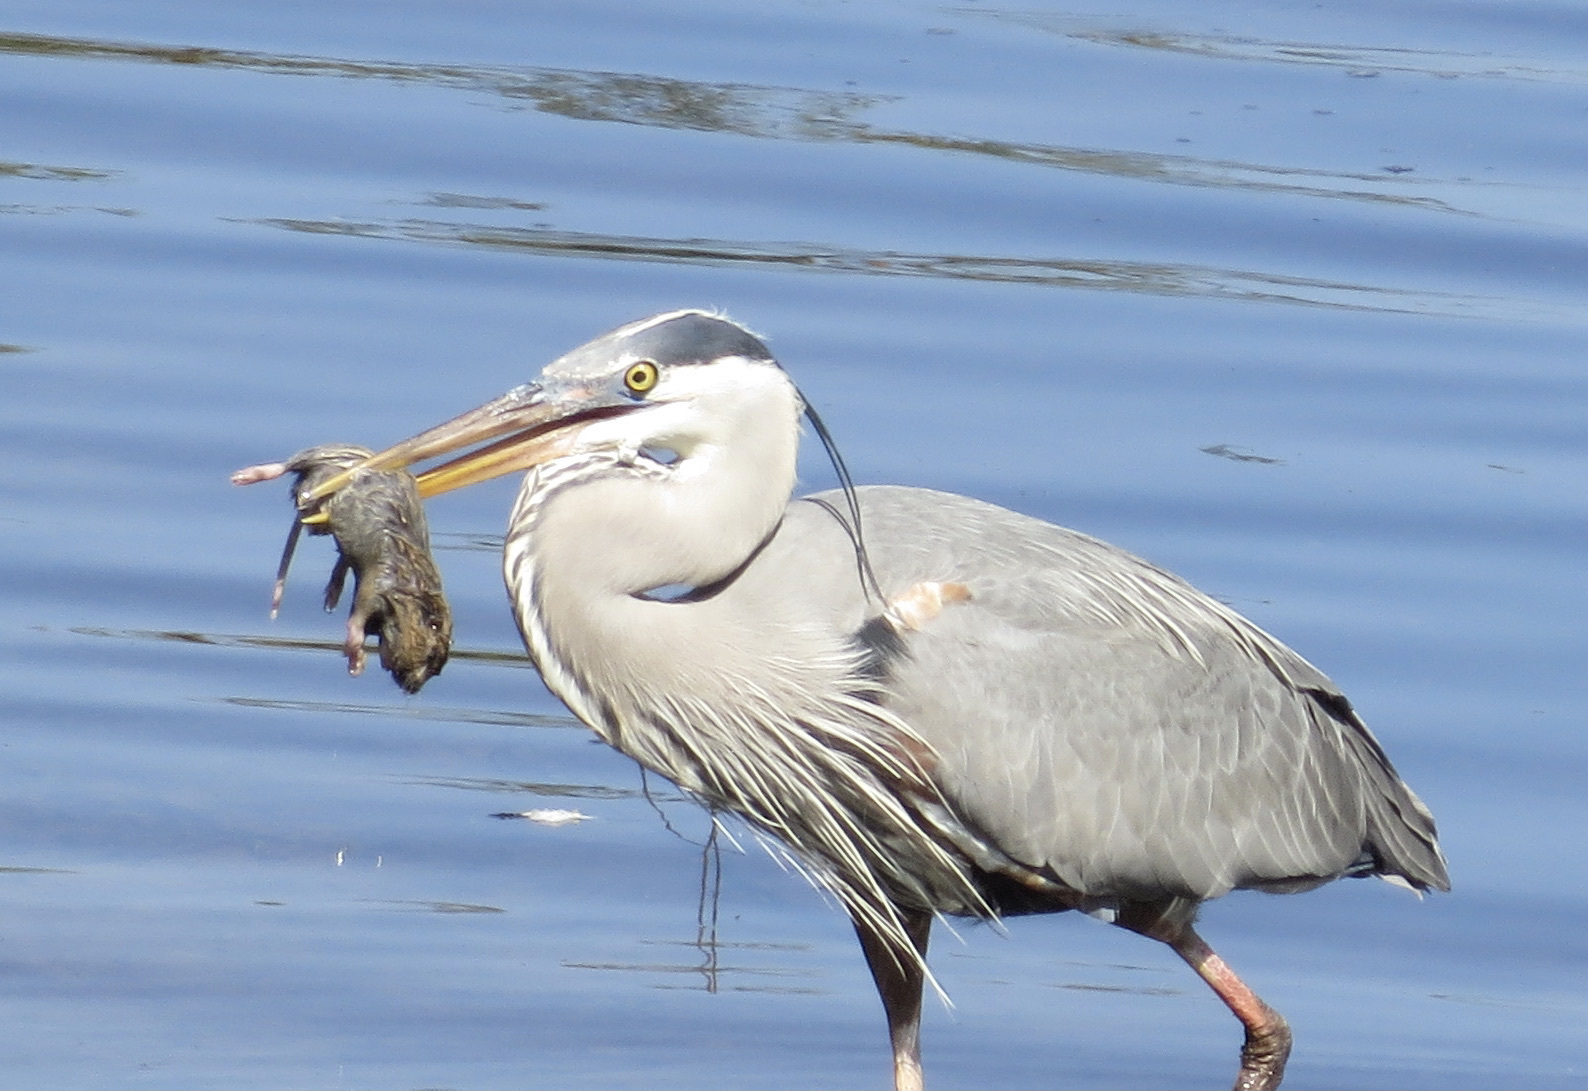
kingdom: Animalia
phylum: Chordata
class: Mammalia
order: Rodentia
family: Geomyidae
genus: Thomomys
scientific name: Thomomys bottae
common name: Botta's pocket gopher
